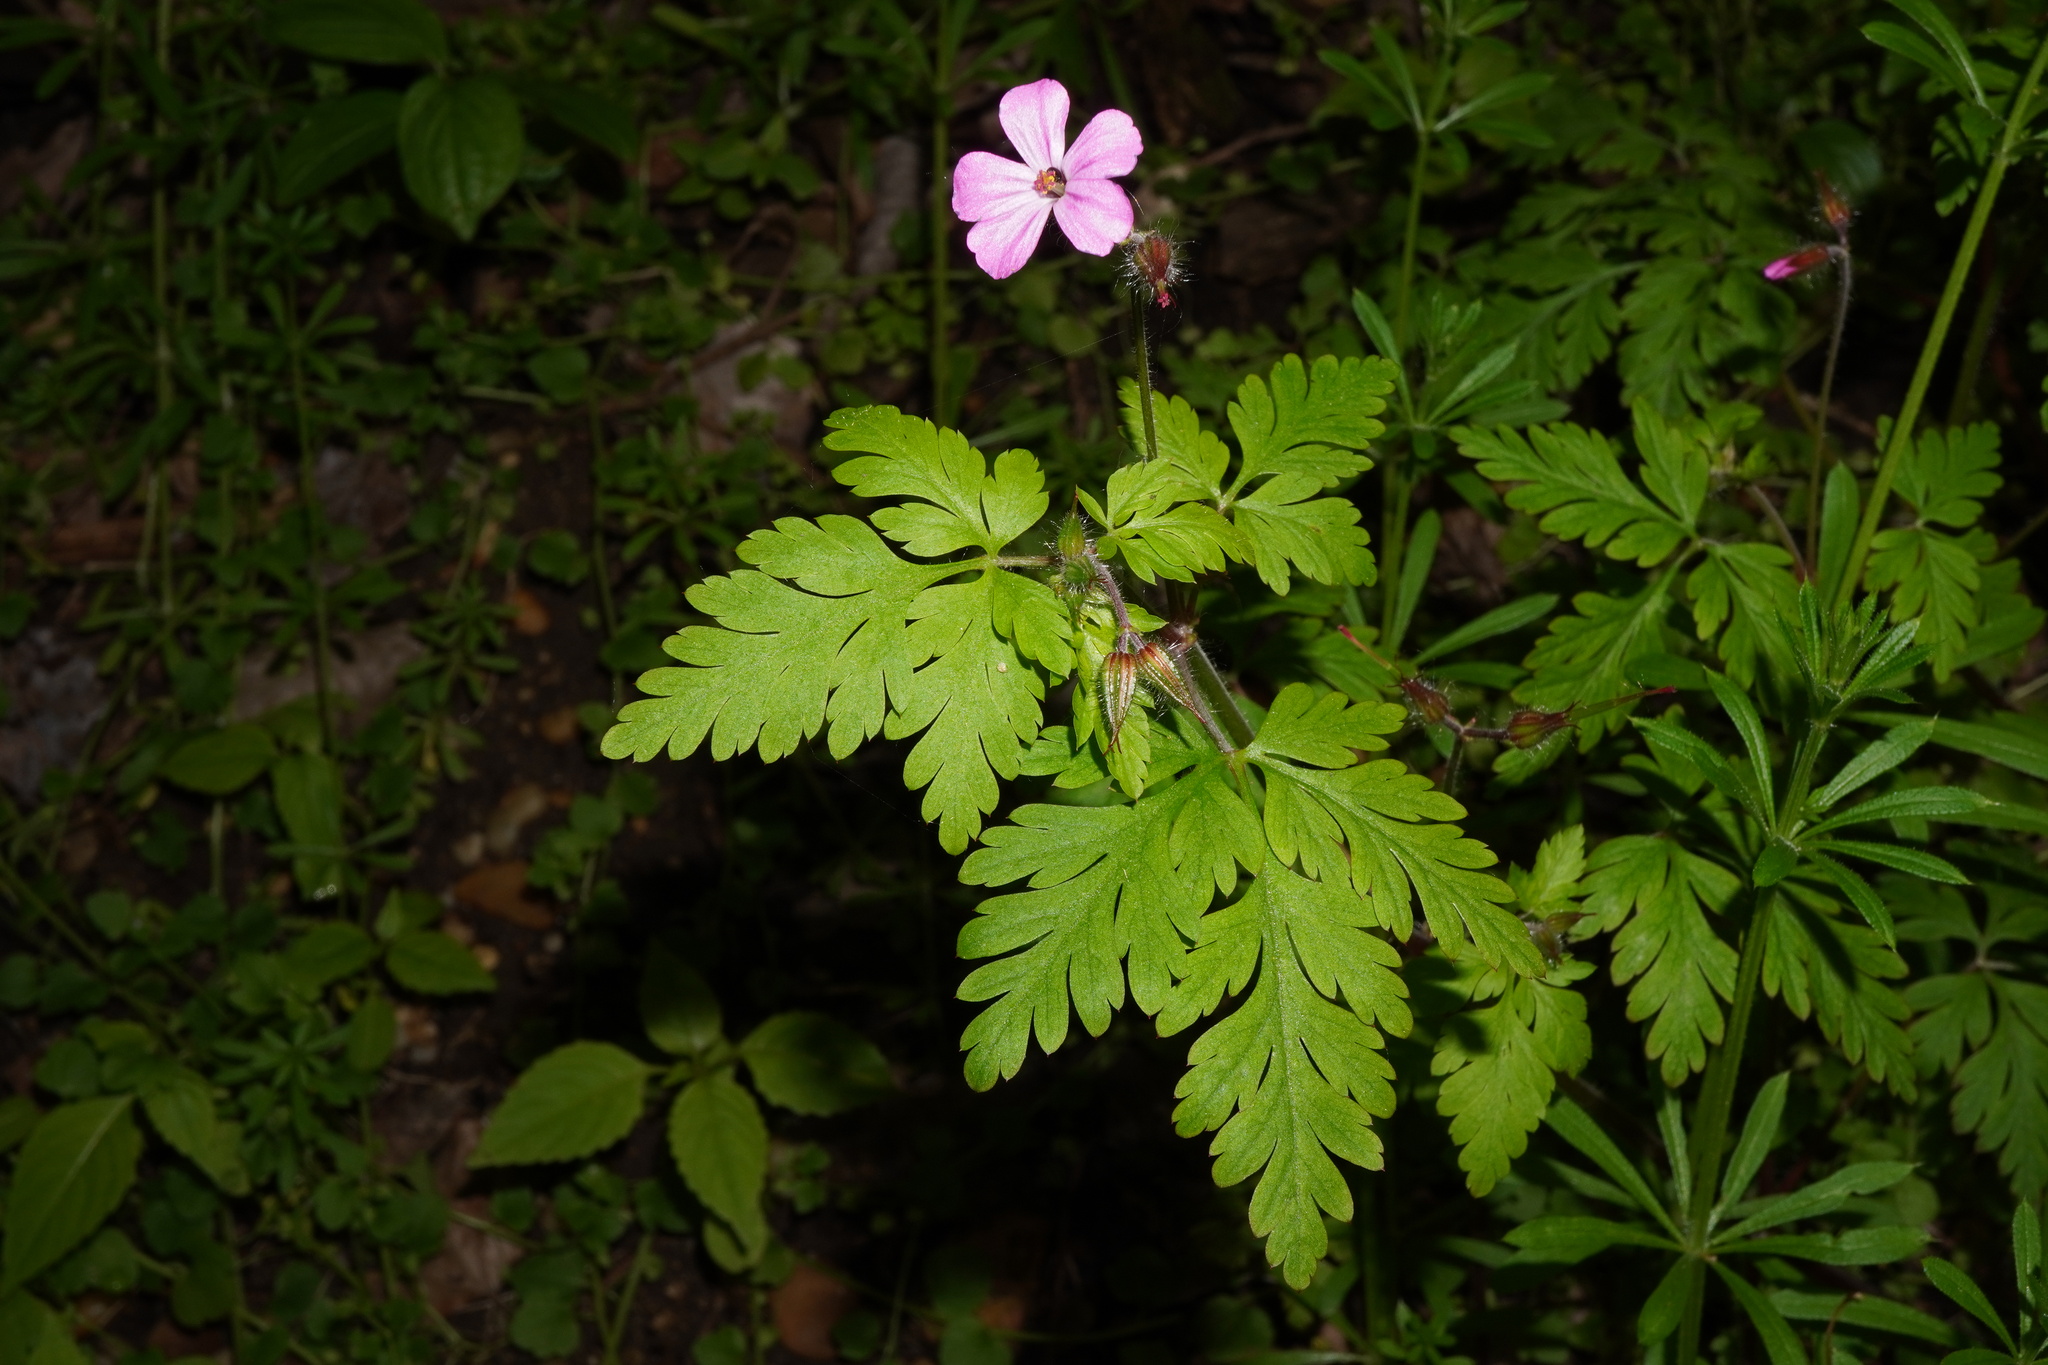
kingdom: Plantae
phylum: Tracheophyta
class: Magnoliopsida
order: Geraniales
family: Geraniaceae
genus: Geranium
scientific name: Geranium robertianum
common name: Herb-robert
